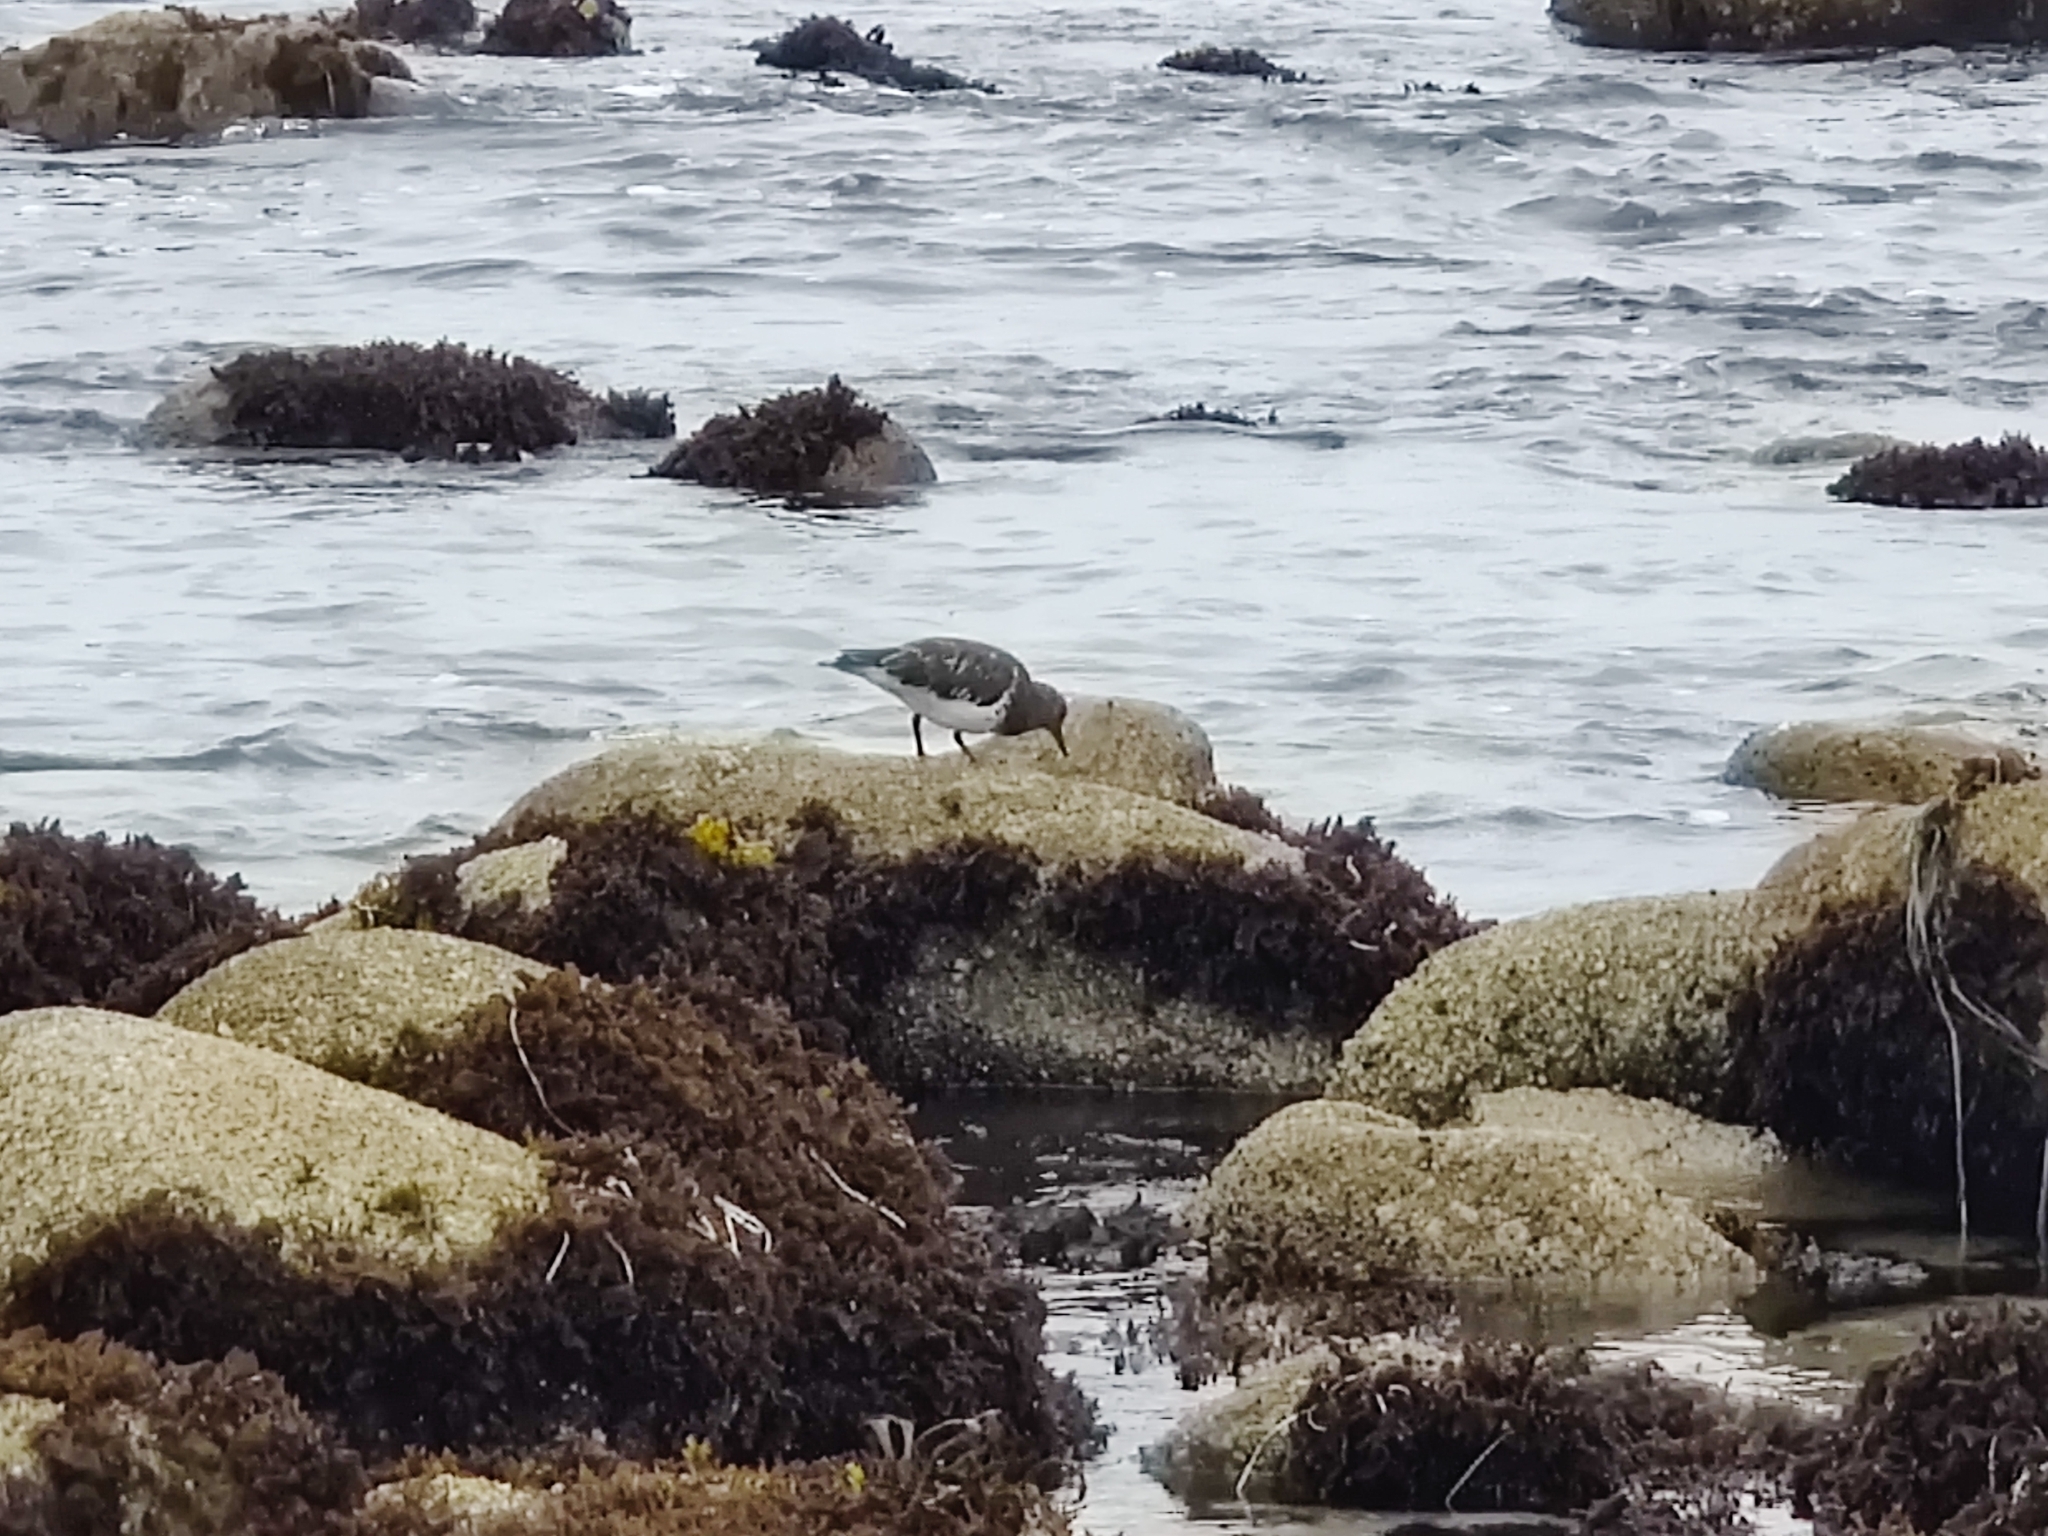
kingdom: Animalia
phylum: Chordata
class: Aves
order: Charadriiformes
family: Scolopacidae
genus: Arenaria
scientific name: Arenaria melanocephala
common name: Black turnstone
